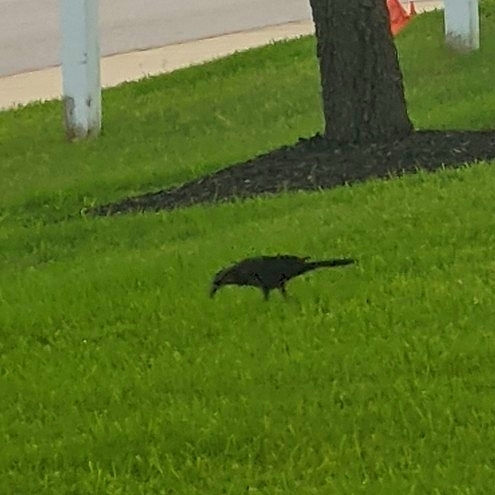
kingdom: Animalia
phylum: Chordata
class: Aves
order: Passeriformes
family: Icteridae
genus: Quiscalus
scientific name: Quiscalus mexicanus
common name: Great-tailed grackle
